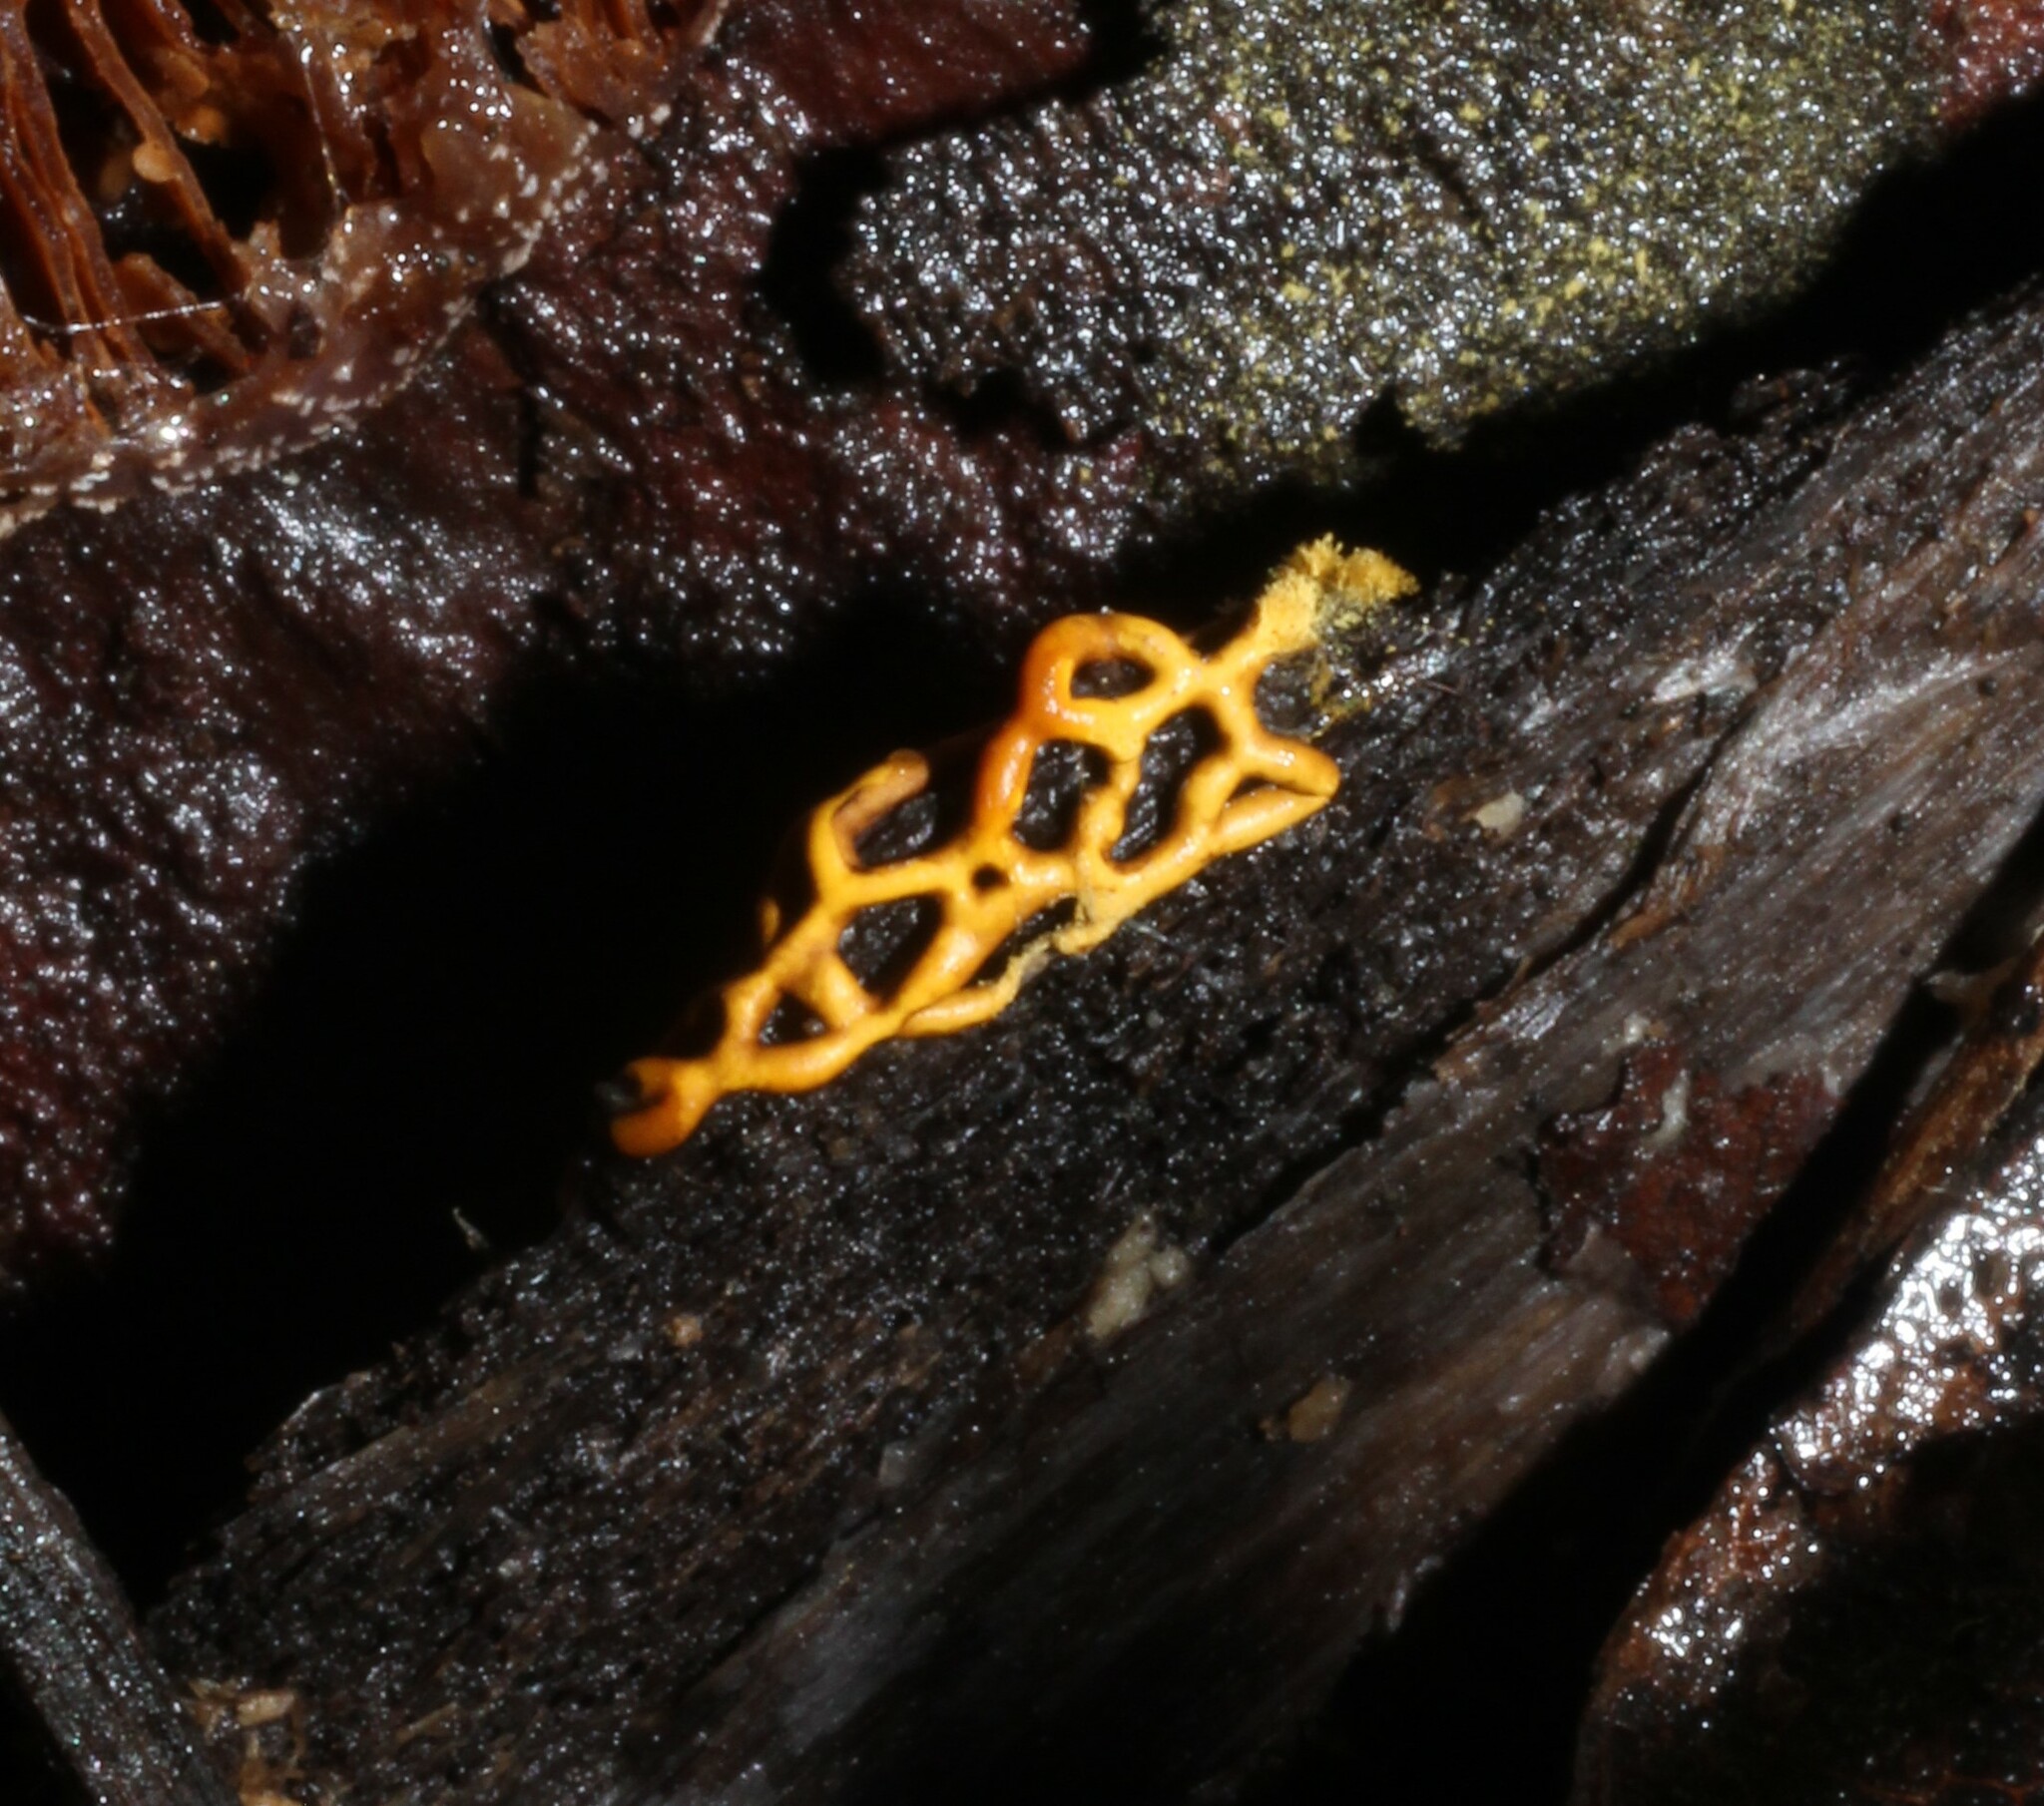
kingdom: Protozoa
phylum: Mycetozoa
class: Myxomycetes
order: Trichiales
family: Arcyriaceae
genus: Hemitrichia
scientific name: Hemitrichia serpula
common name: Pretzel slime mold
